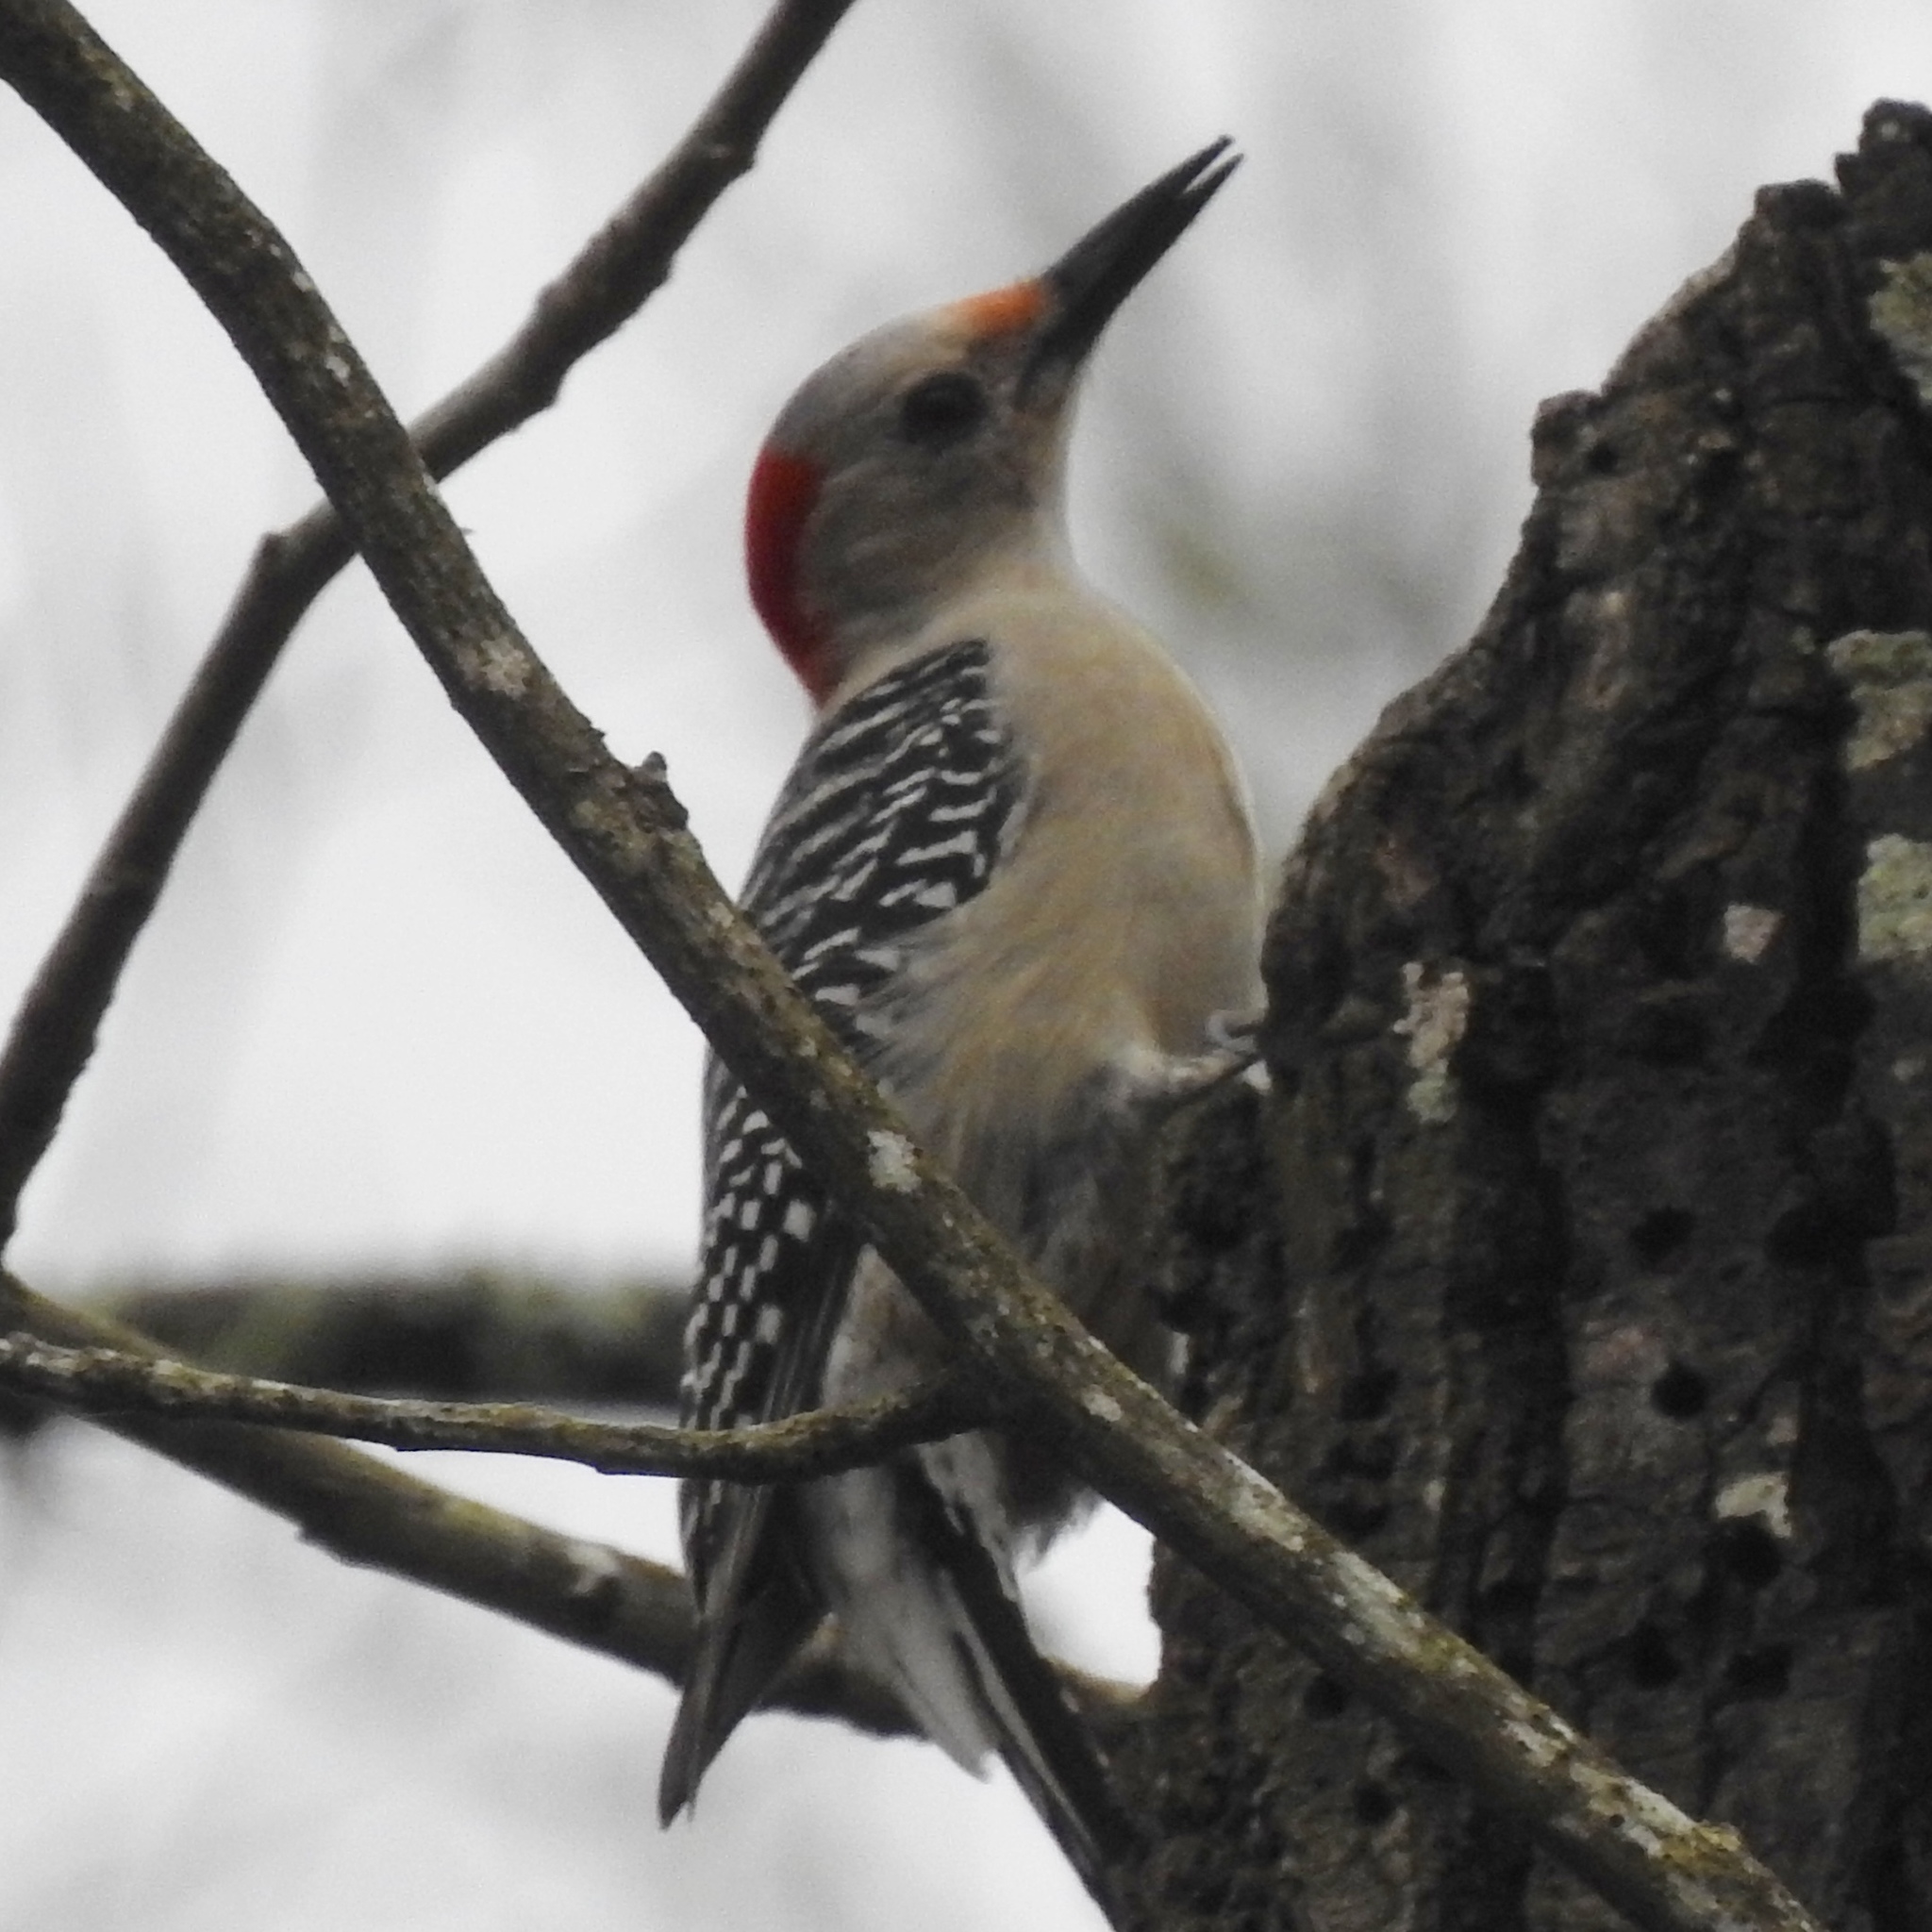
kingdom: Animalia
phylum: Chordata
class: Aves
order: Piciformes
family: Picidae
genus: Melanerpes
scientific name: Melanerpes carolinus
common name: Red-bellied woodpecker
